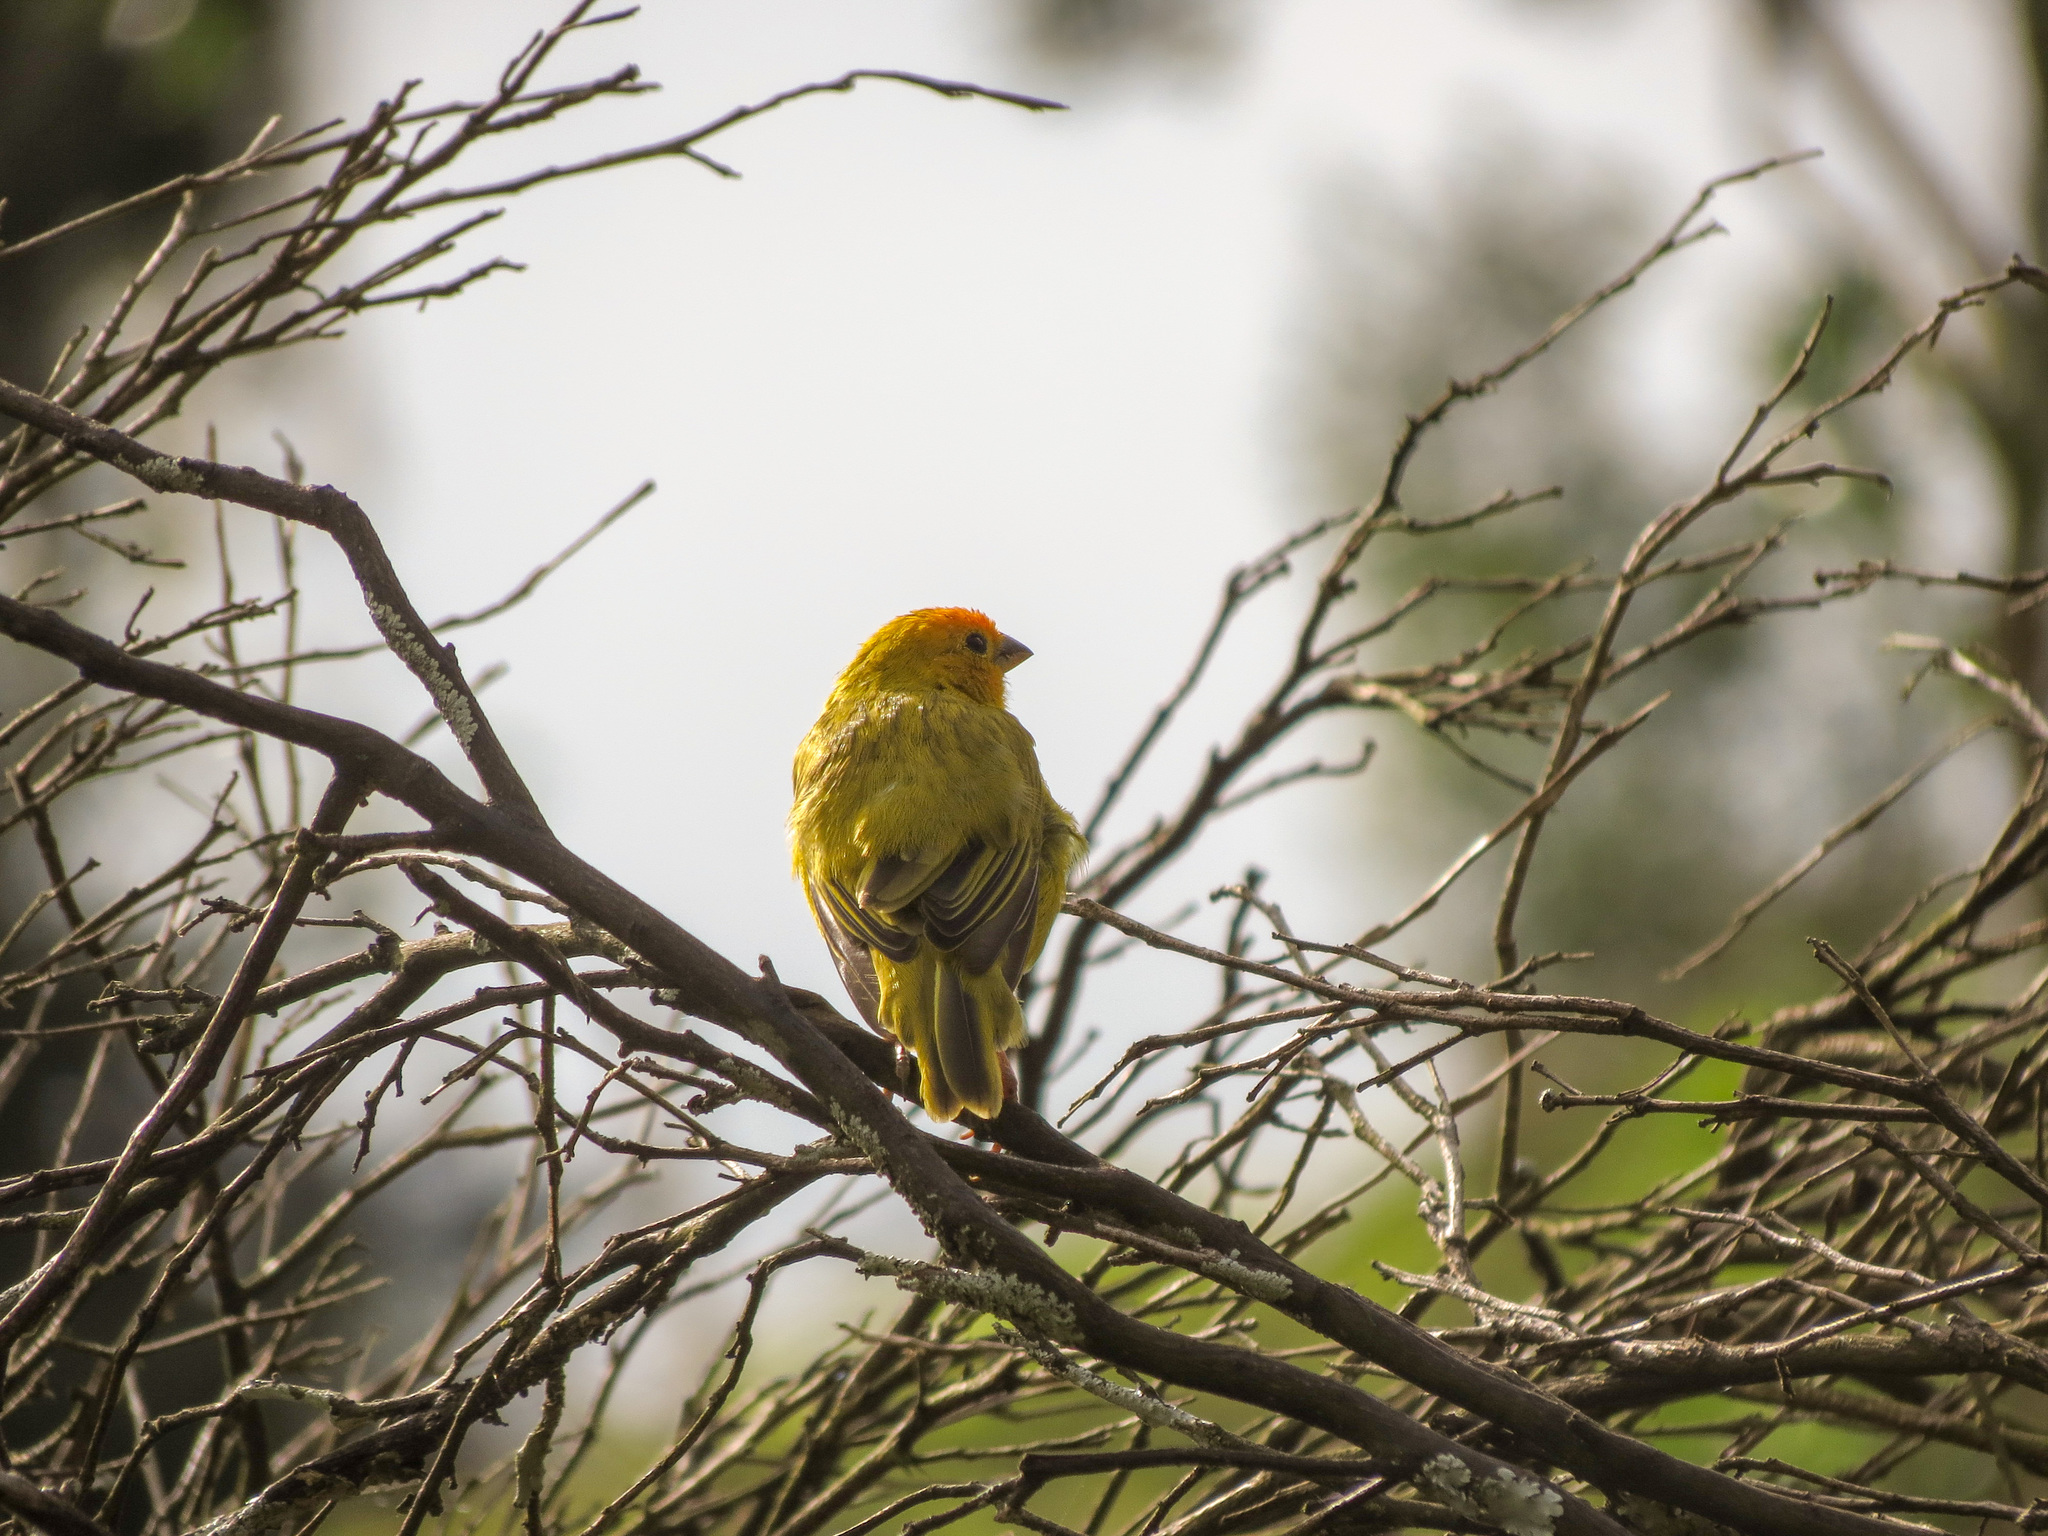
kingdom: Animalia
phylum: Chordata
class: Aves
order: Passeriformes
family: Thraupidae
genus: Sicalis
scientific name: Sicalis flaveola
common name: Saffron finch
